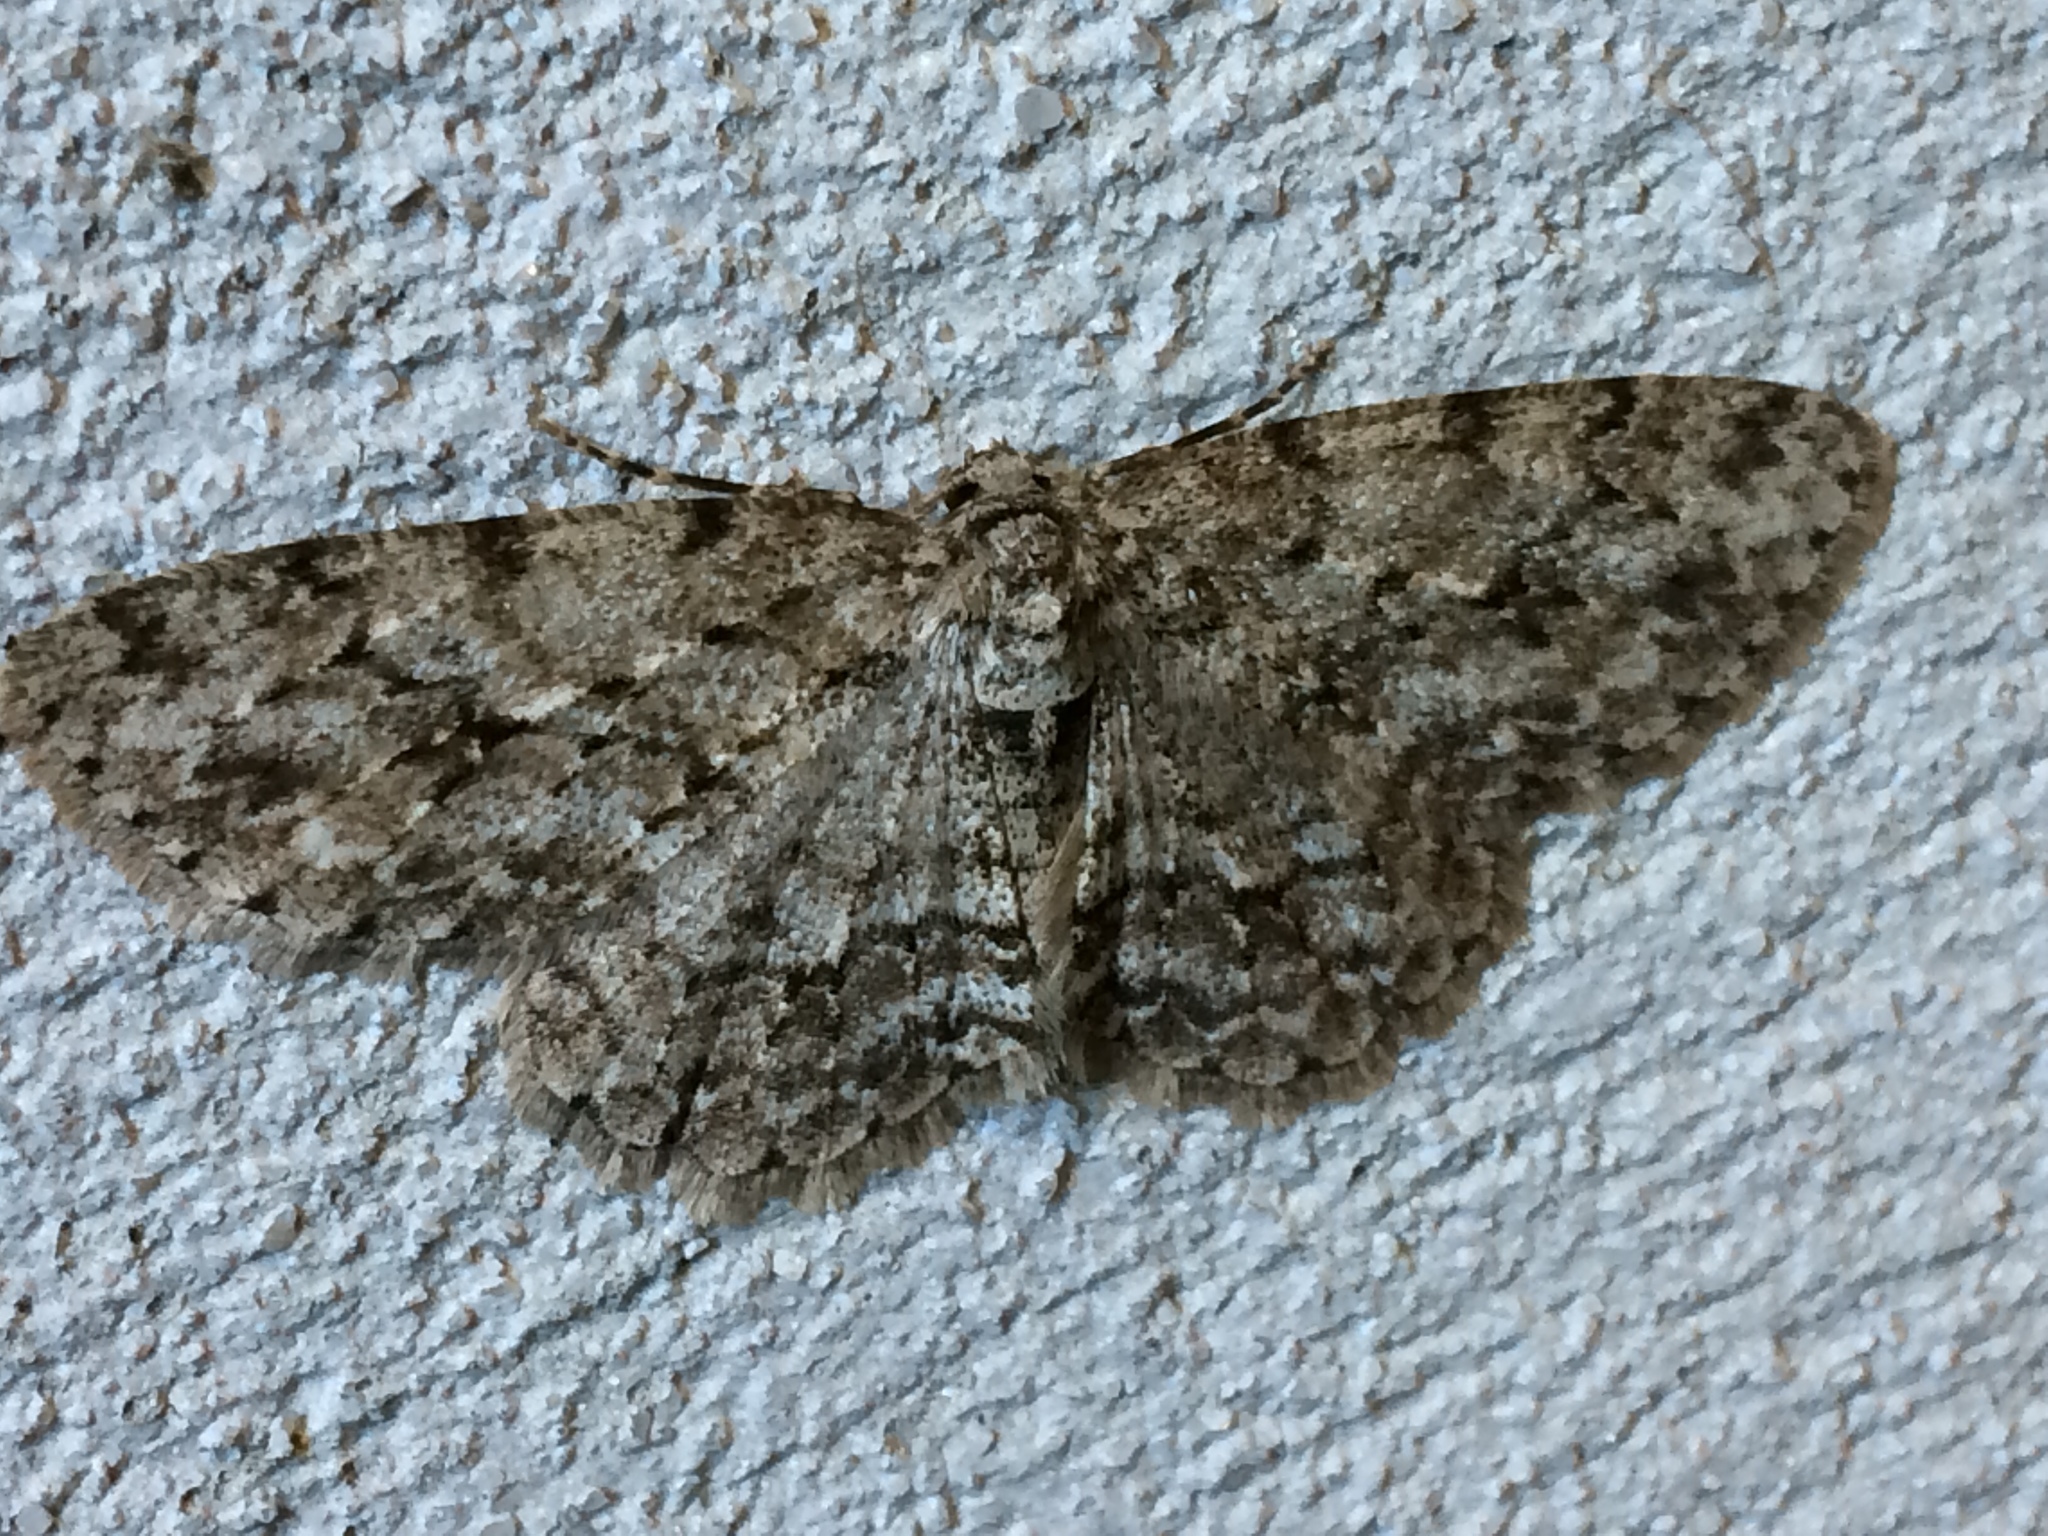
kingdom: Animalia
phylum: Arthropoda
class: Insecta
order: Lepidoptera
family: Geometridae
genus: Ectropis
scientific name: Ectropis crepuscularia
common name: Engrailed
